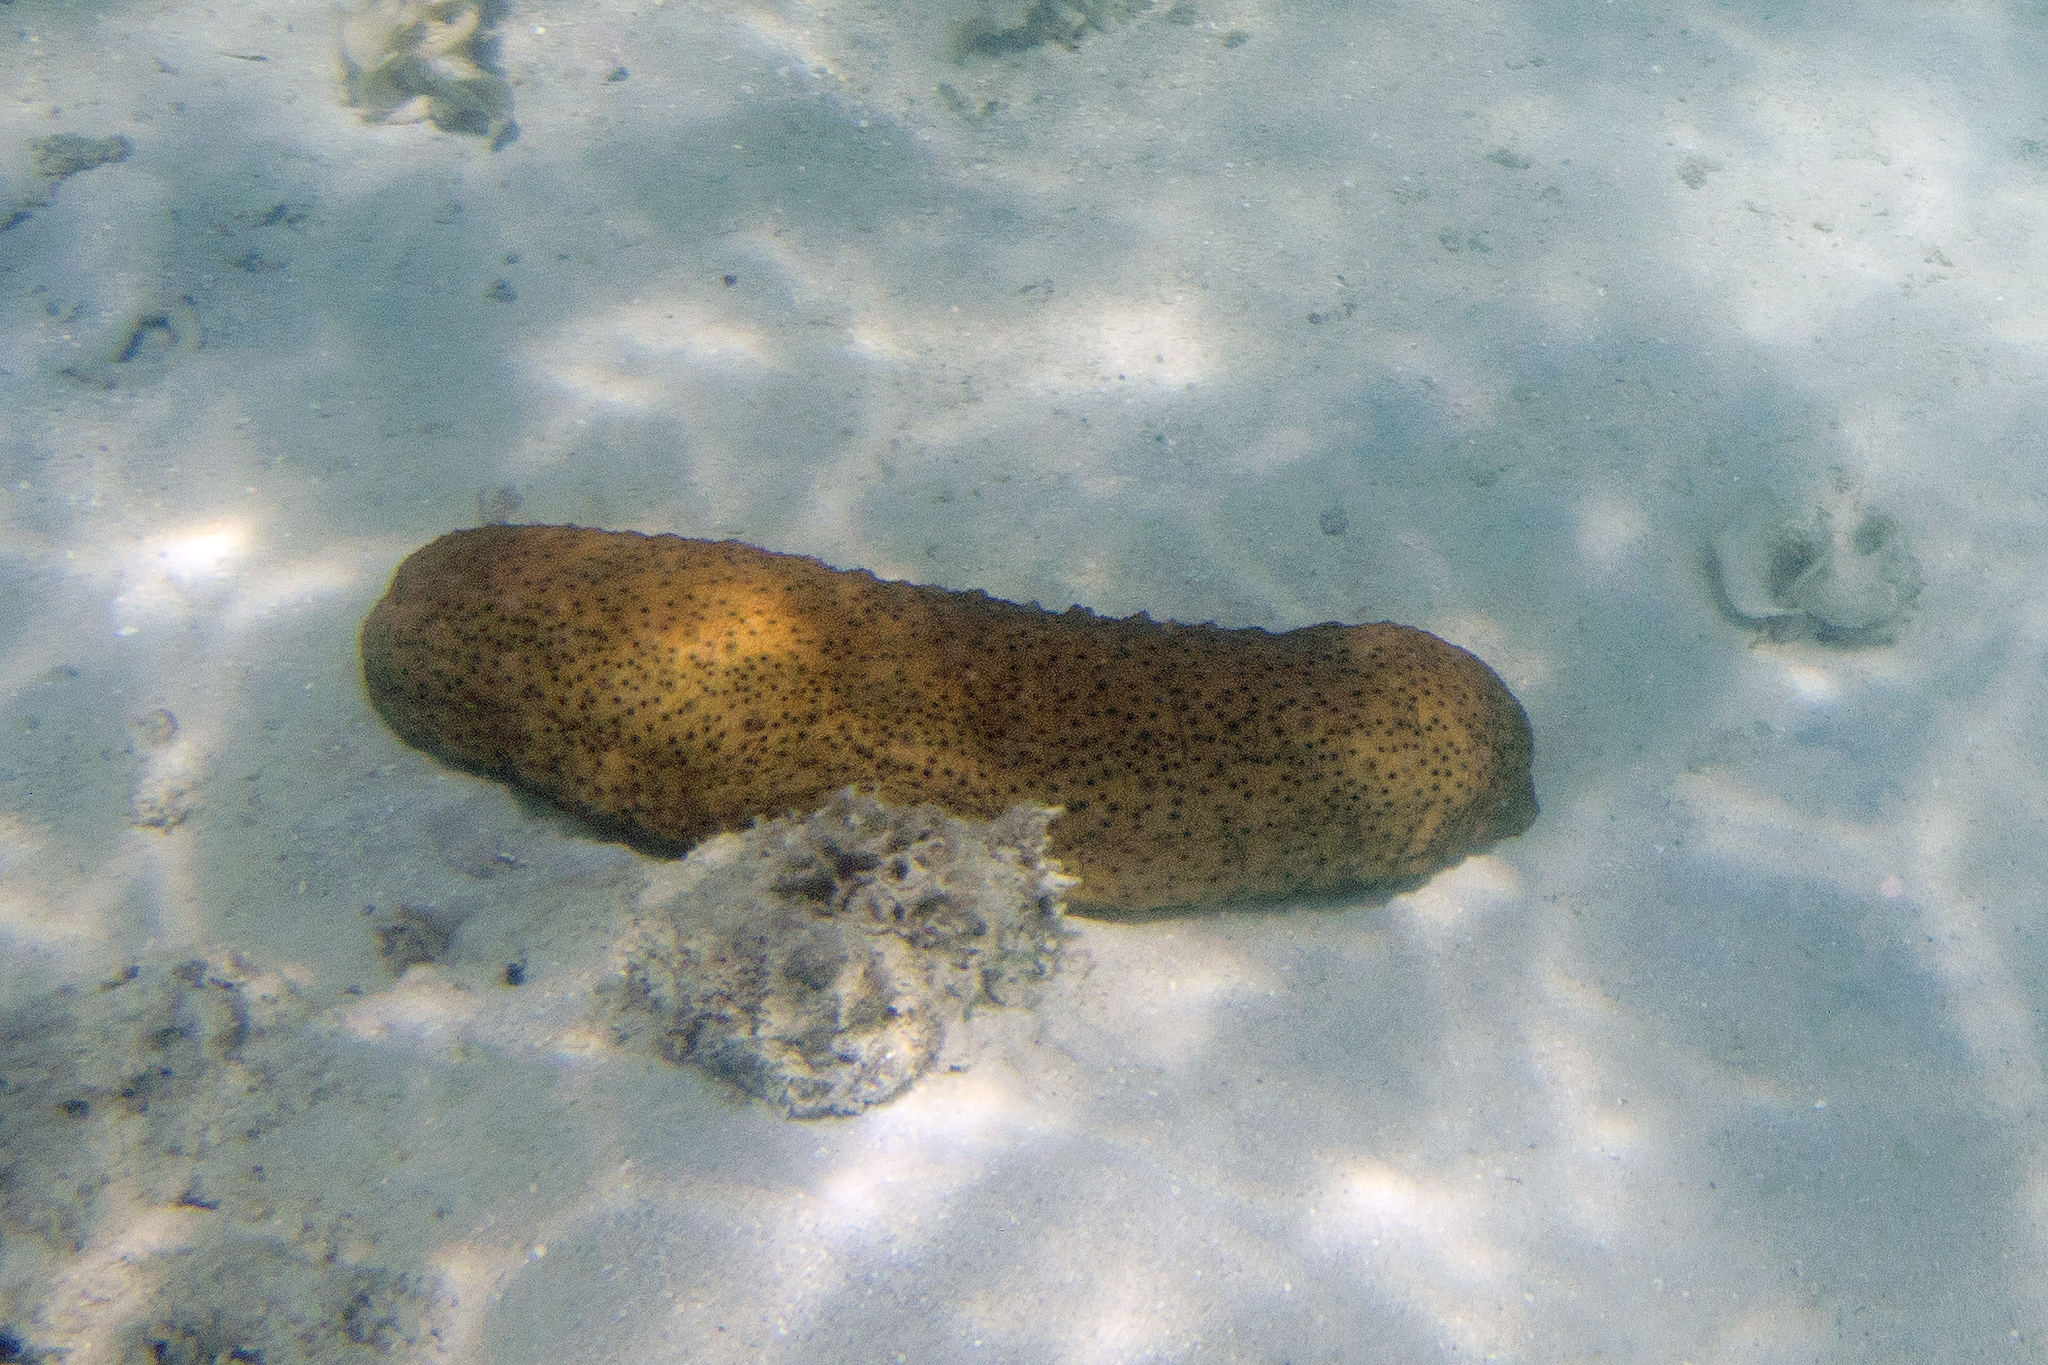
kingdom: Animalia
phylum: Echinodermata
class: Holothuroidea
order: Synallactida
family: Stichopodidae
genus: Stichopus
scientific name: Stichopus herrmanni
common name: Curryfish
